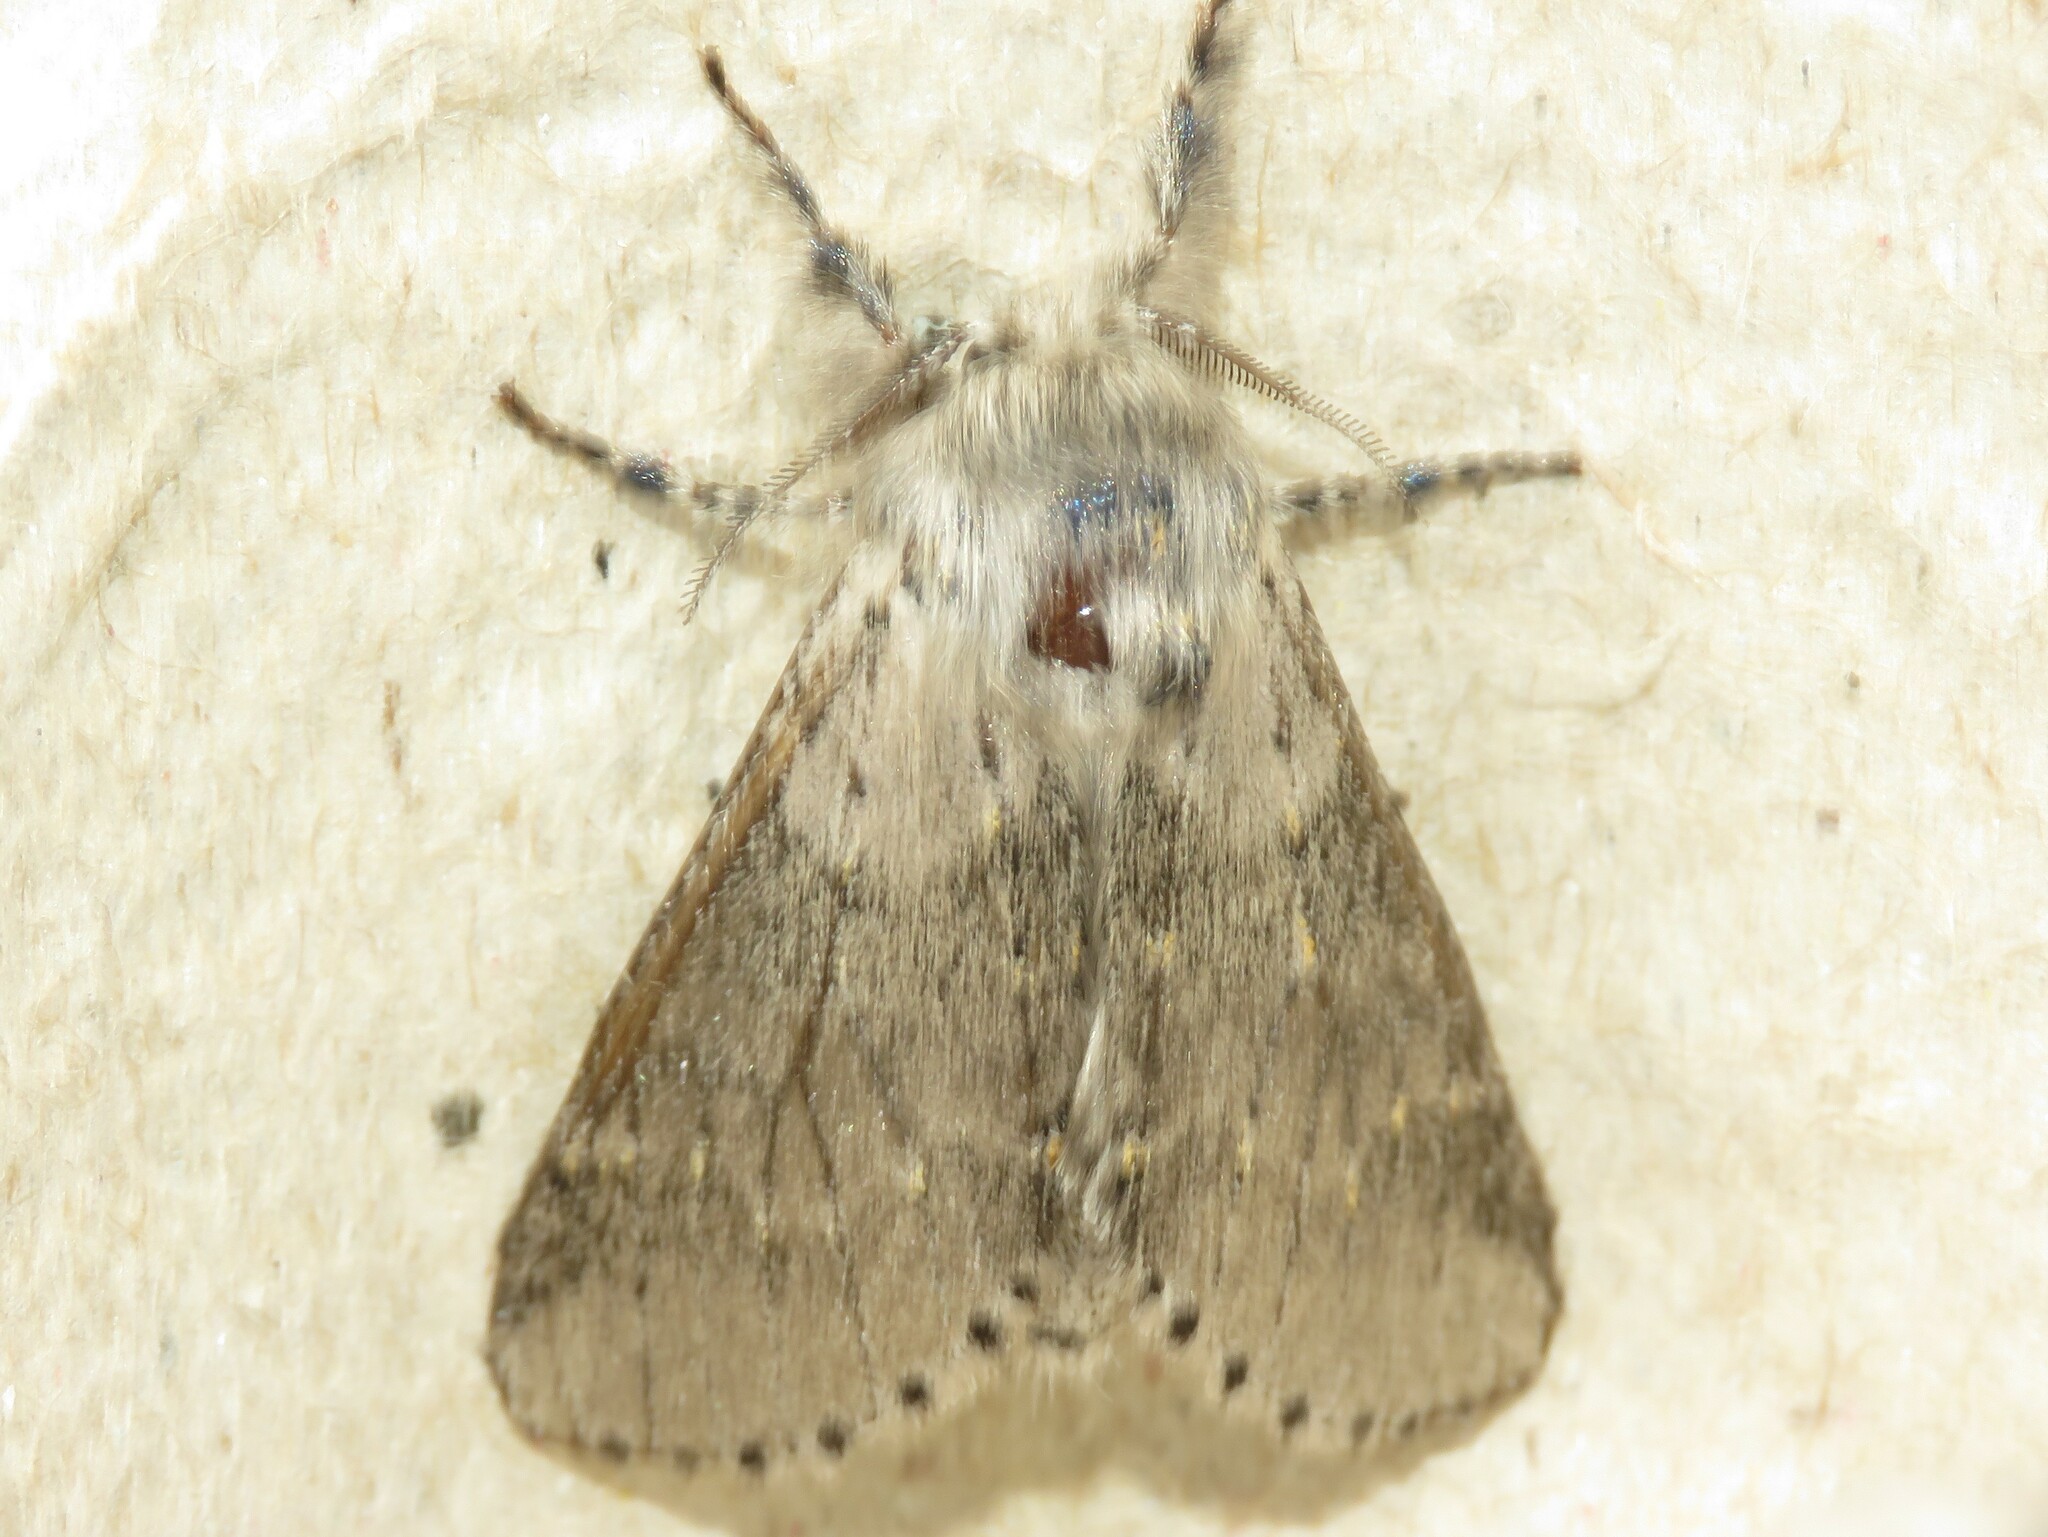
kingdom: Animalia
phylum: Arthropoda
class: Insecta
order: Lepidoptera
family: Notodontidae
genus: Furcula
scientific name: Furcula cinerea
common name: Gray furcula
